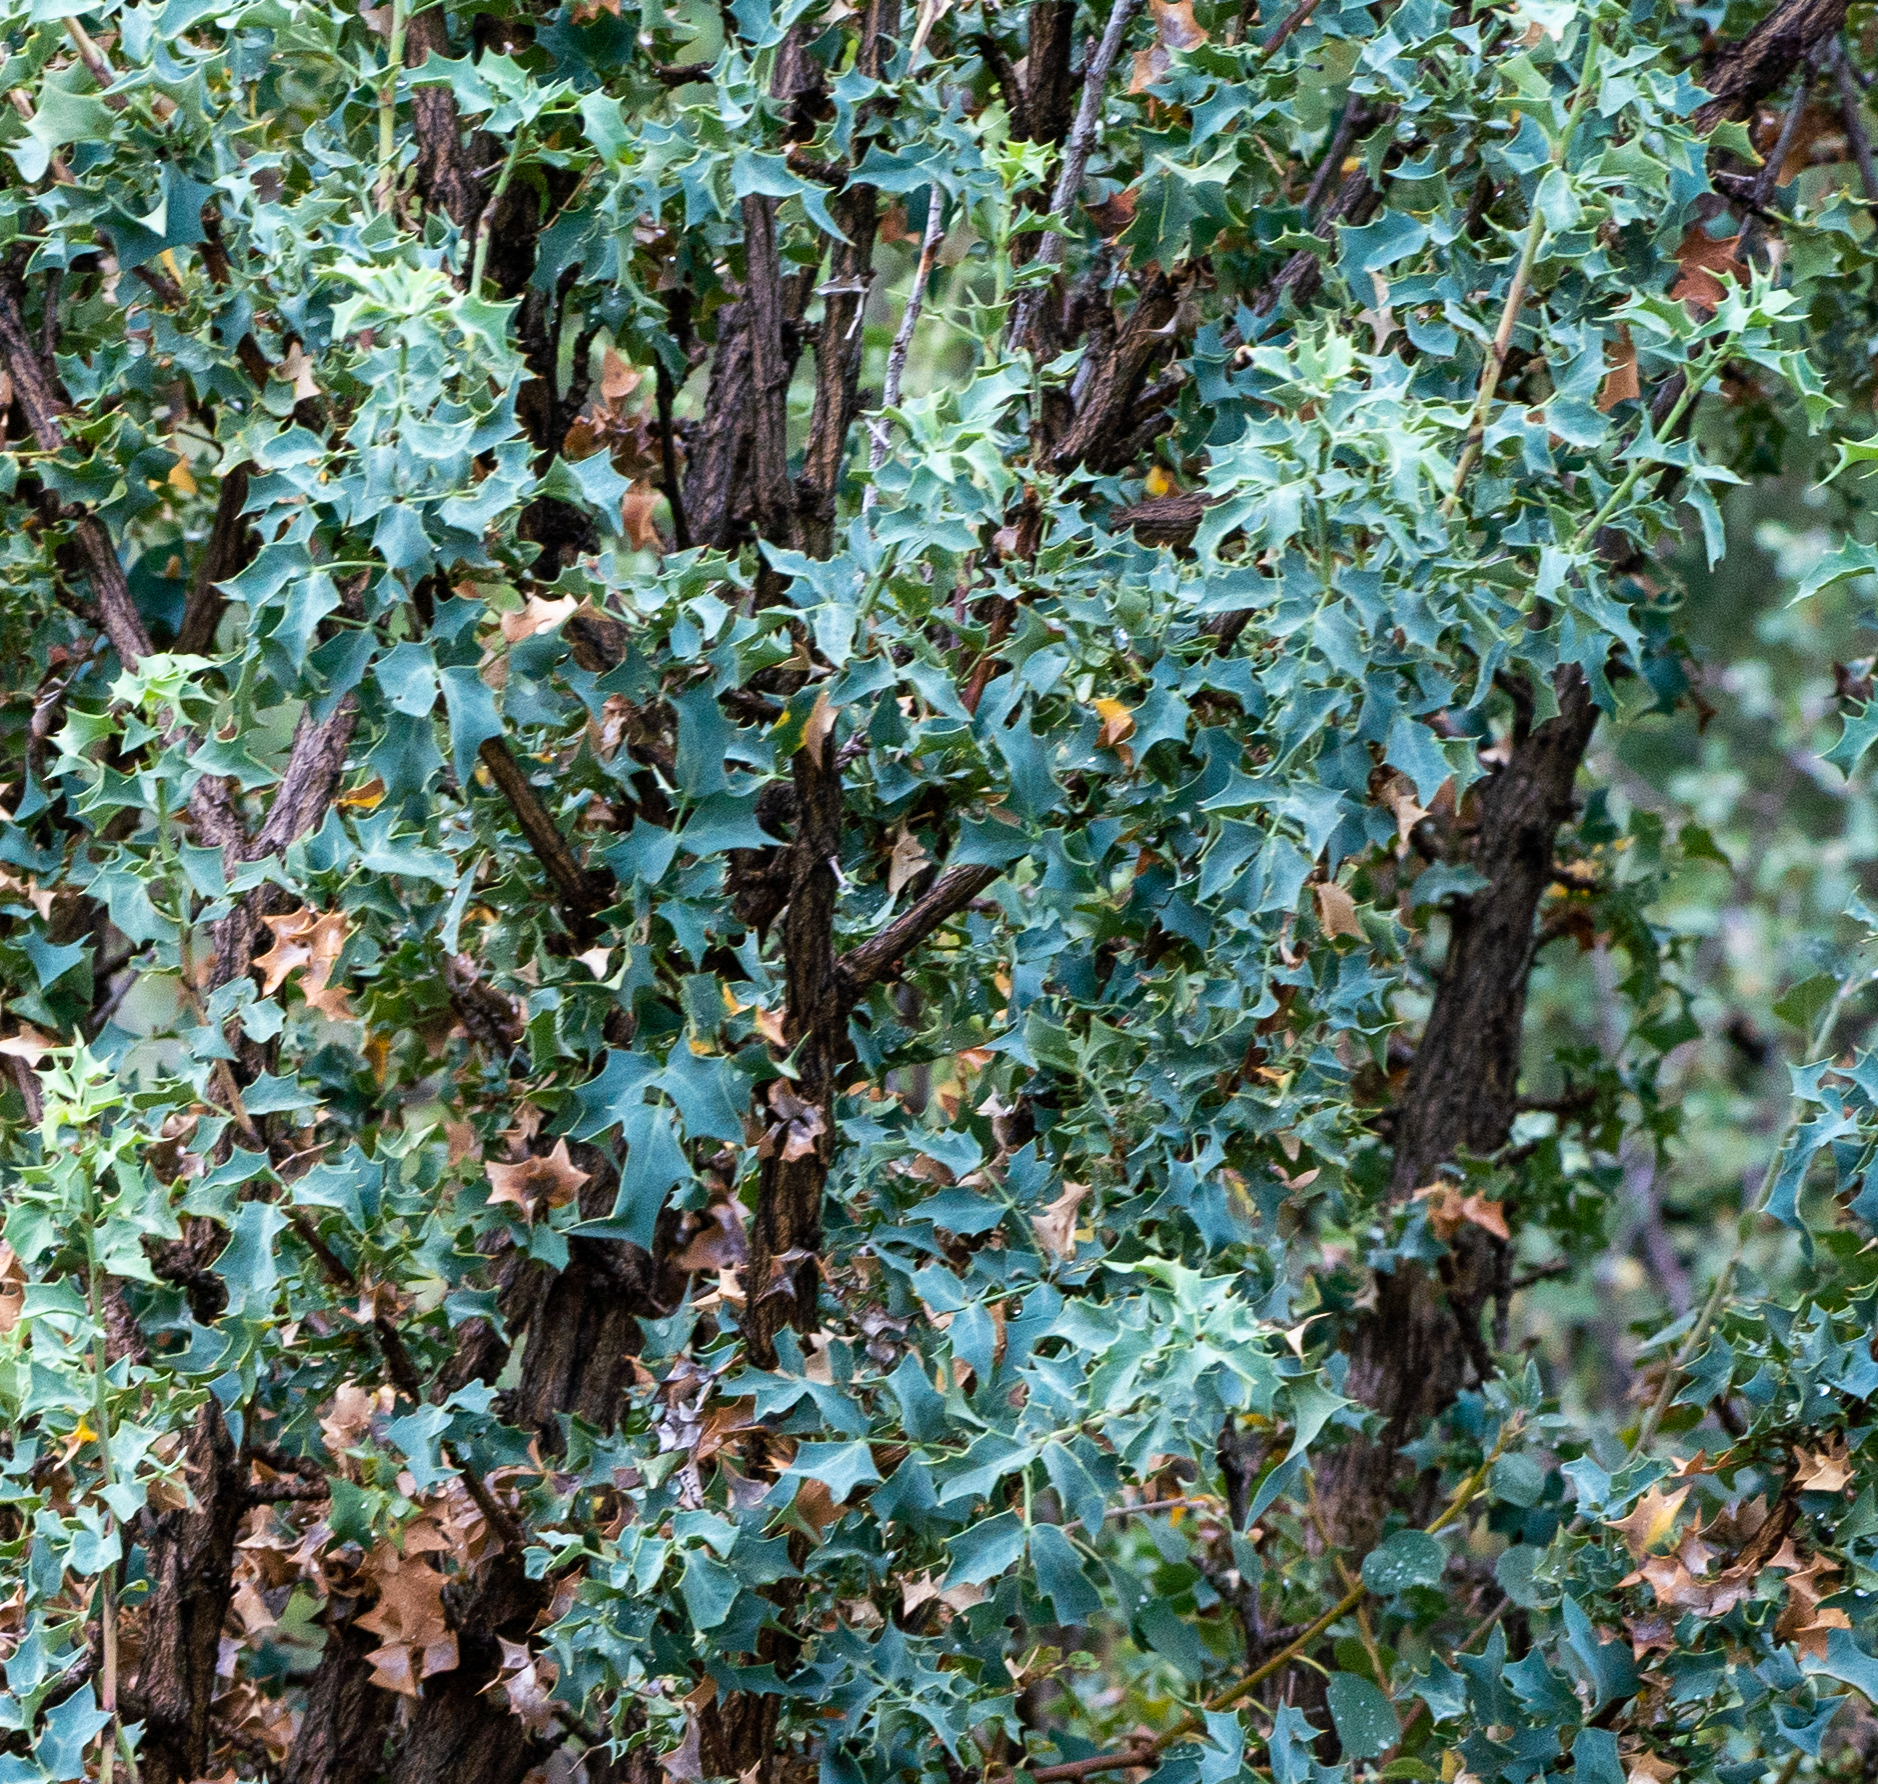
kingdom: Plantae
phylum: Tracheophyta
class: Magnoliopsida
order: Ranunculales
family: Berberidaceae
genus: Alloberberis
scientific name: Alloberberis fremontii
